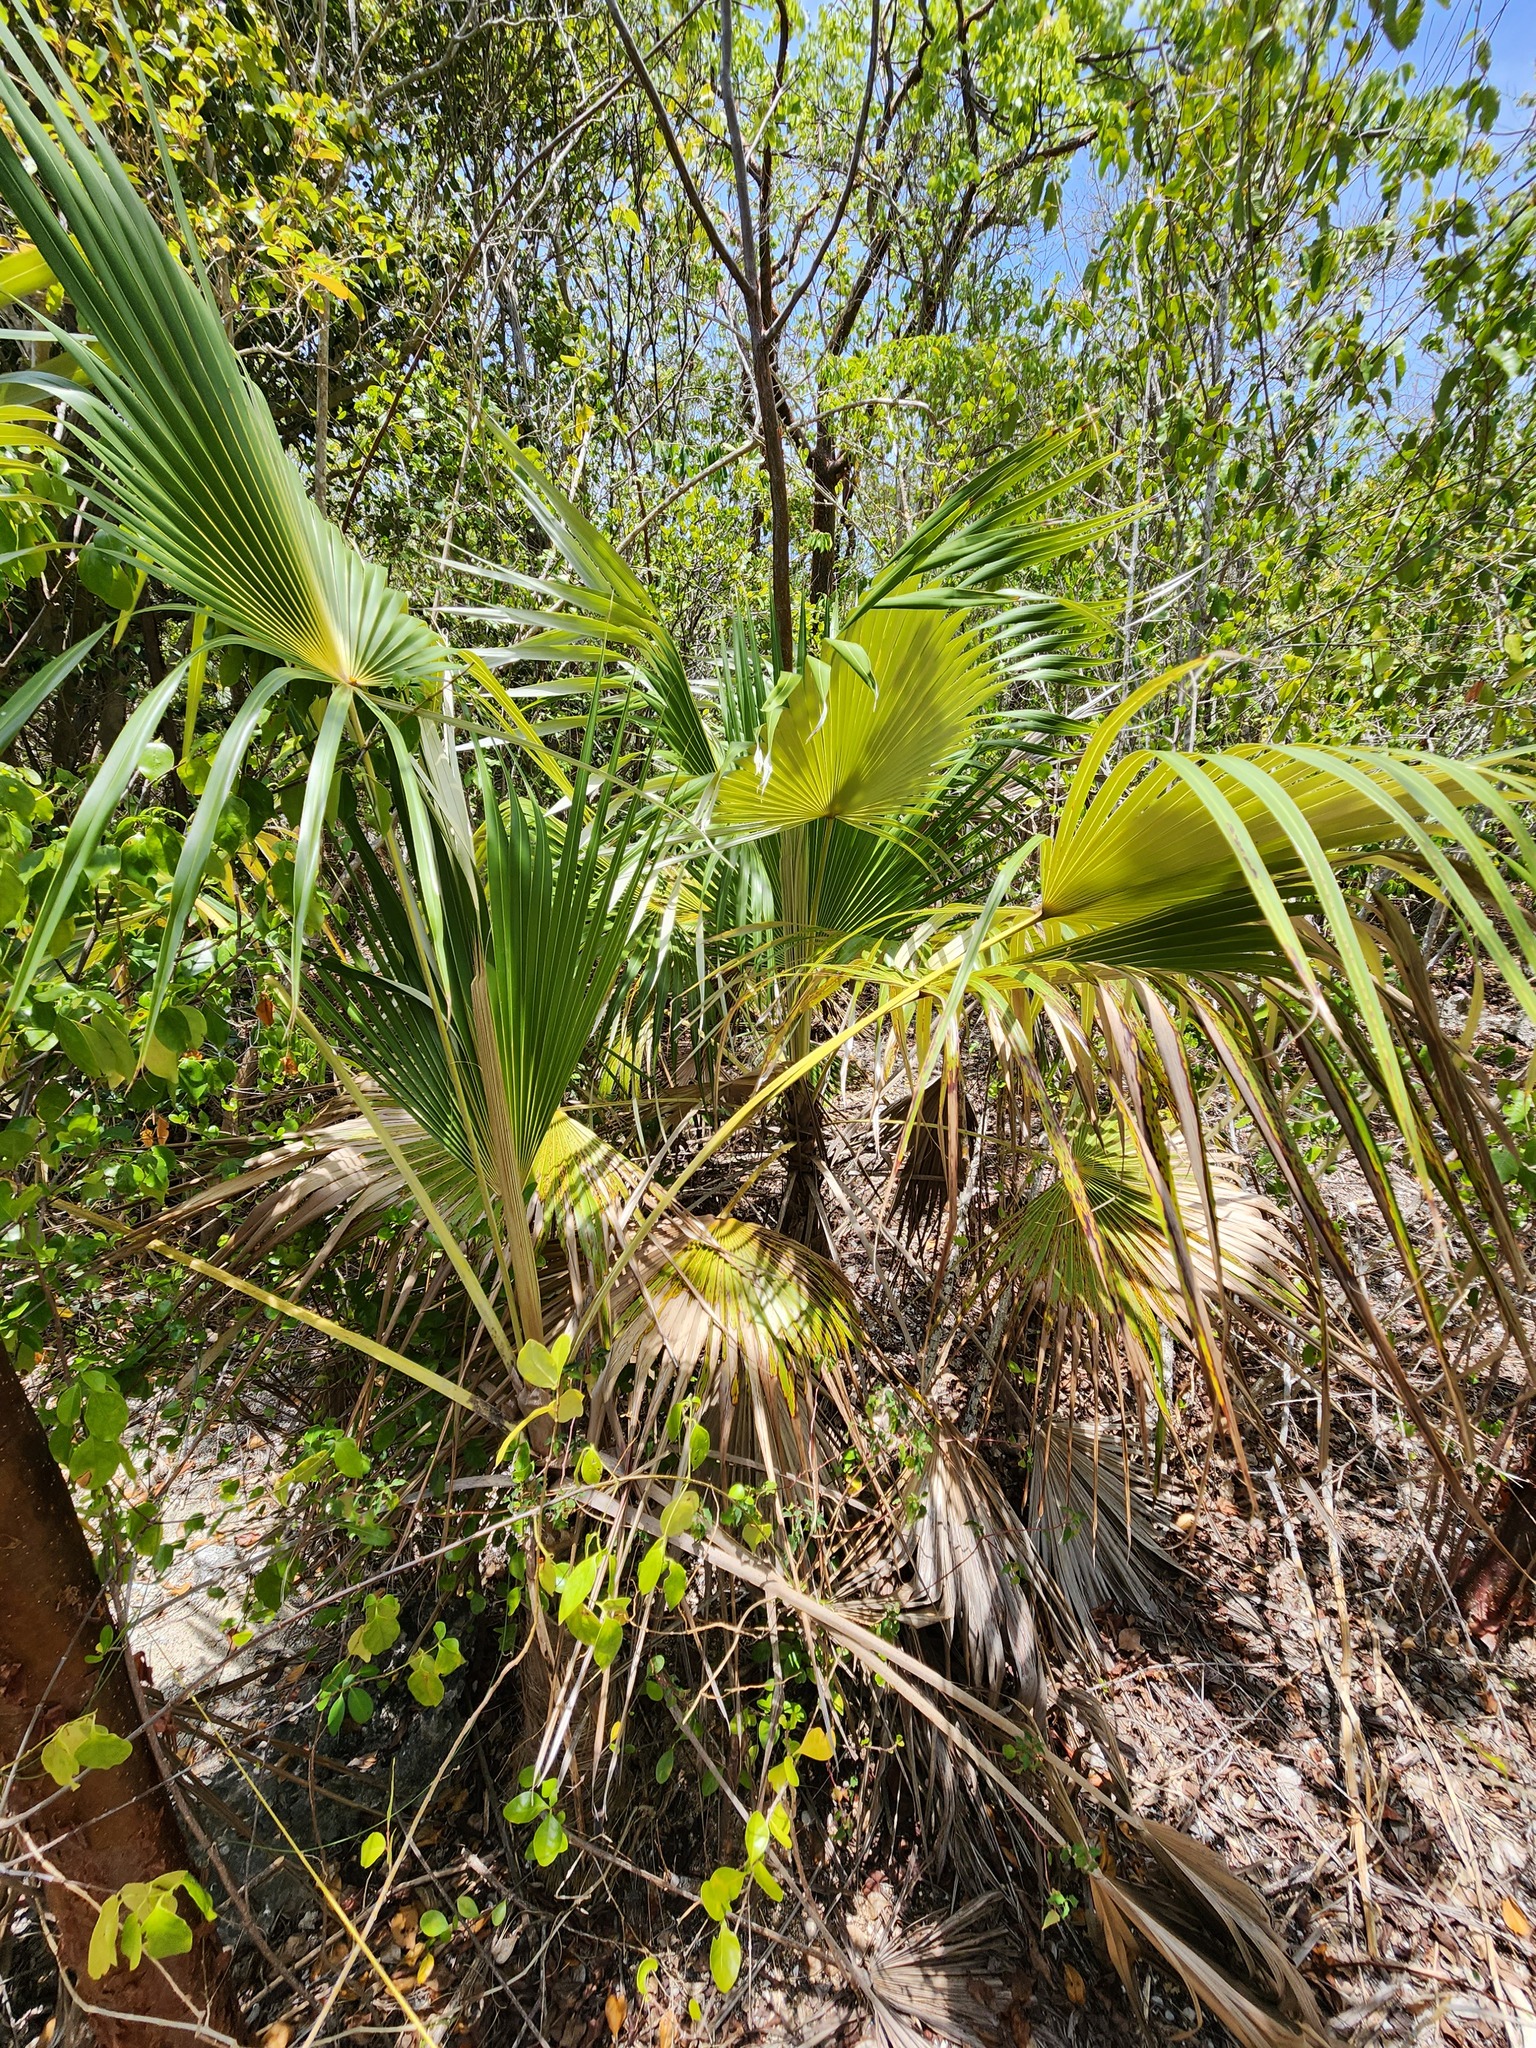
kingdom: Plantae
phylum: Tracheophyta
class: Liliopsida
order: Arecales
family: Arecaceae
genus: Coccothrinax
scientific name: Coccothrinax proctorii
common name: Silver palm
